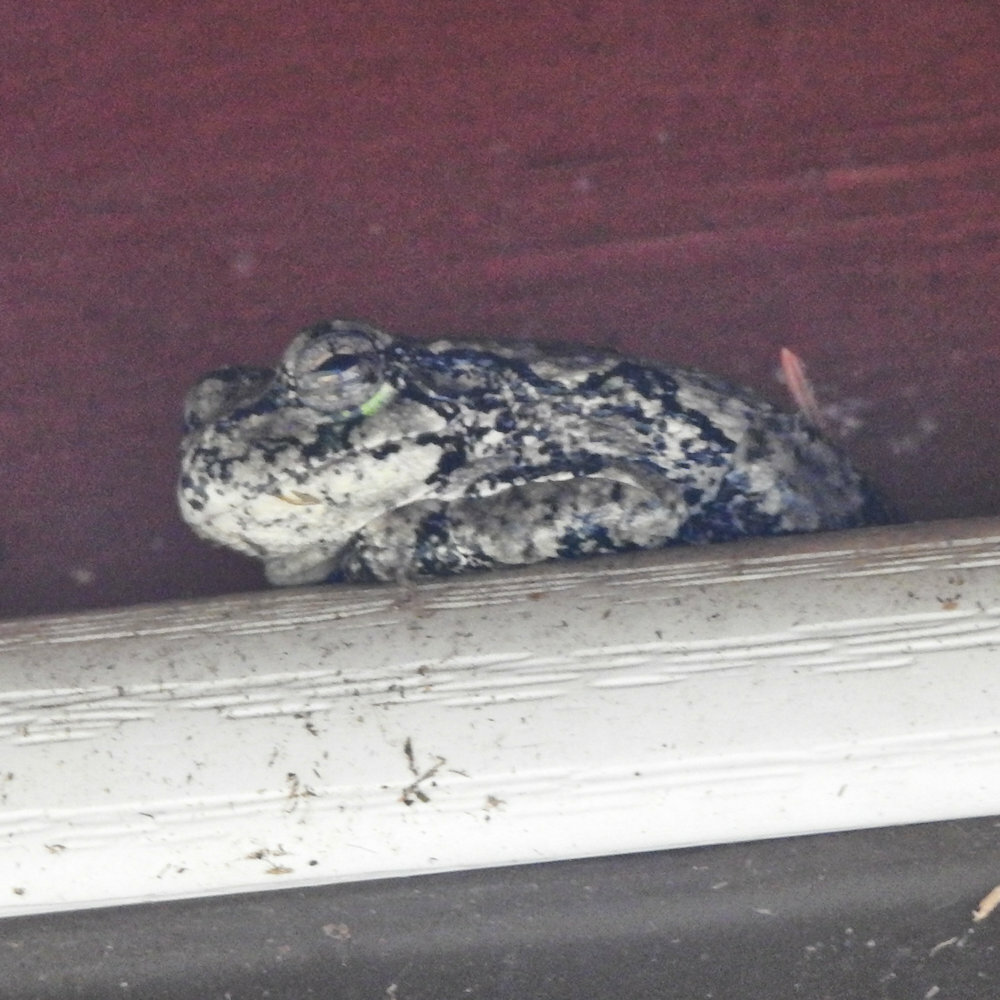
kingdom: Animalia
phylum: Chordata
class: Amphibia
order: Anura
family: Hylidae
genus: Dryophytes
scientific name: Dryophytes versicolor
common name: Gray treefrog
